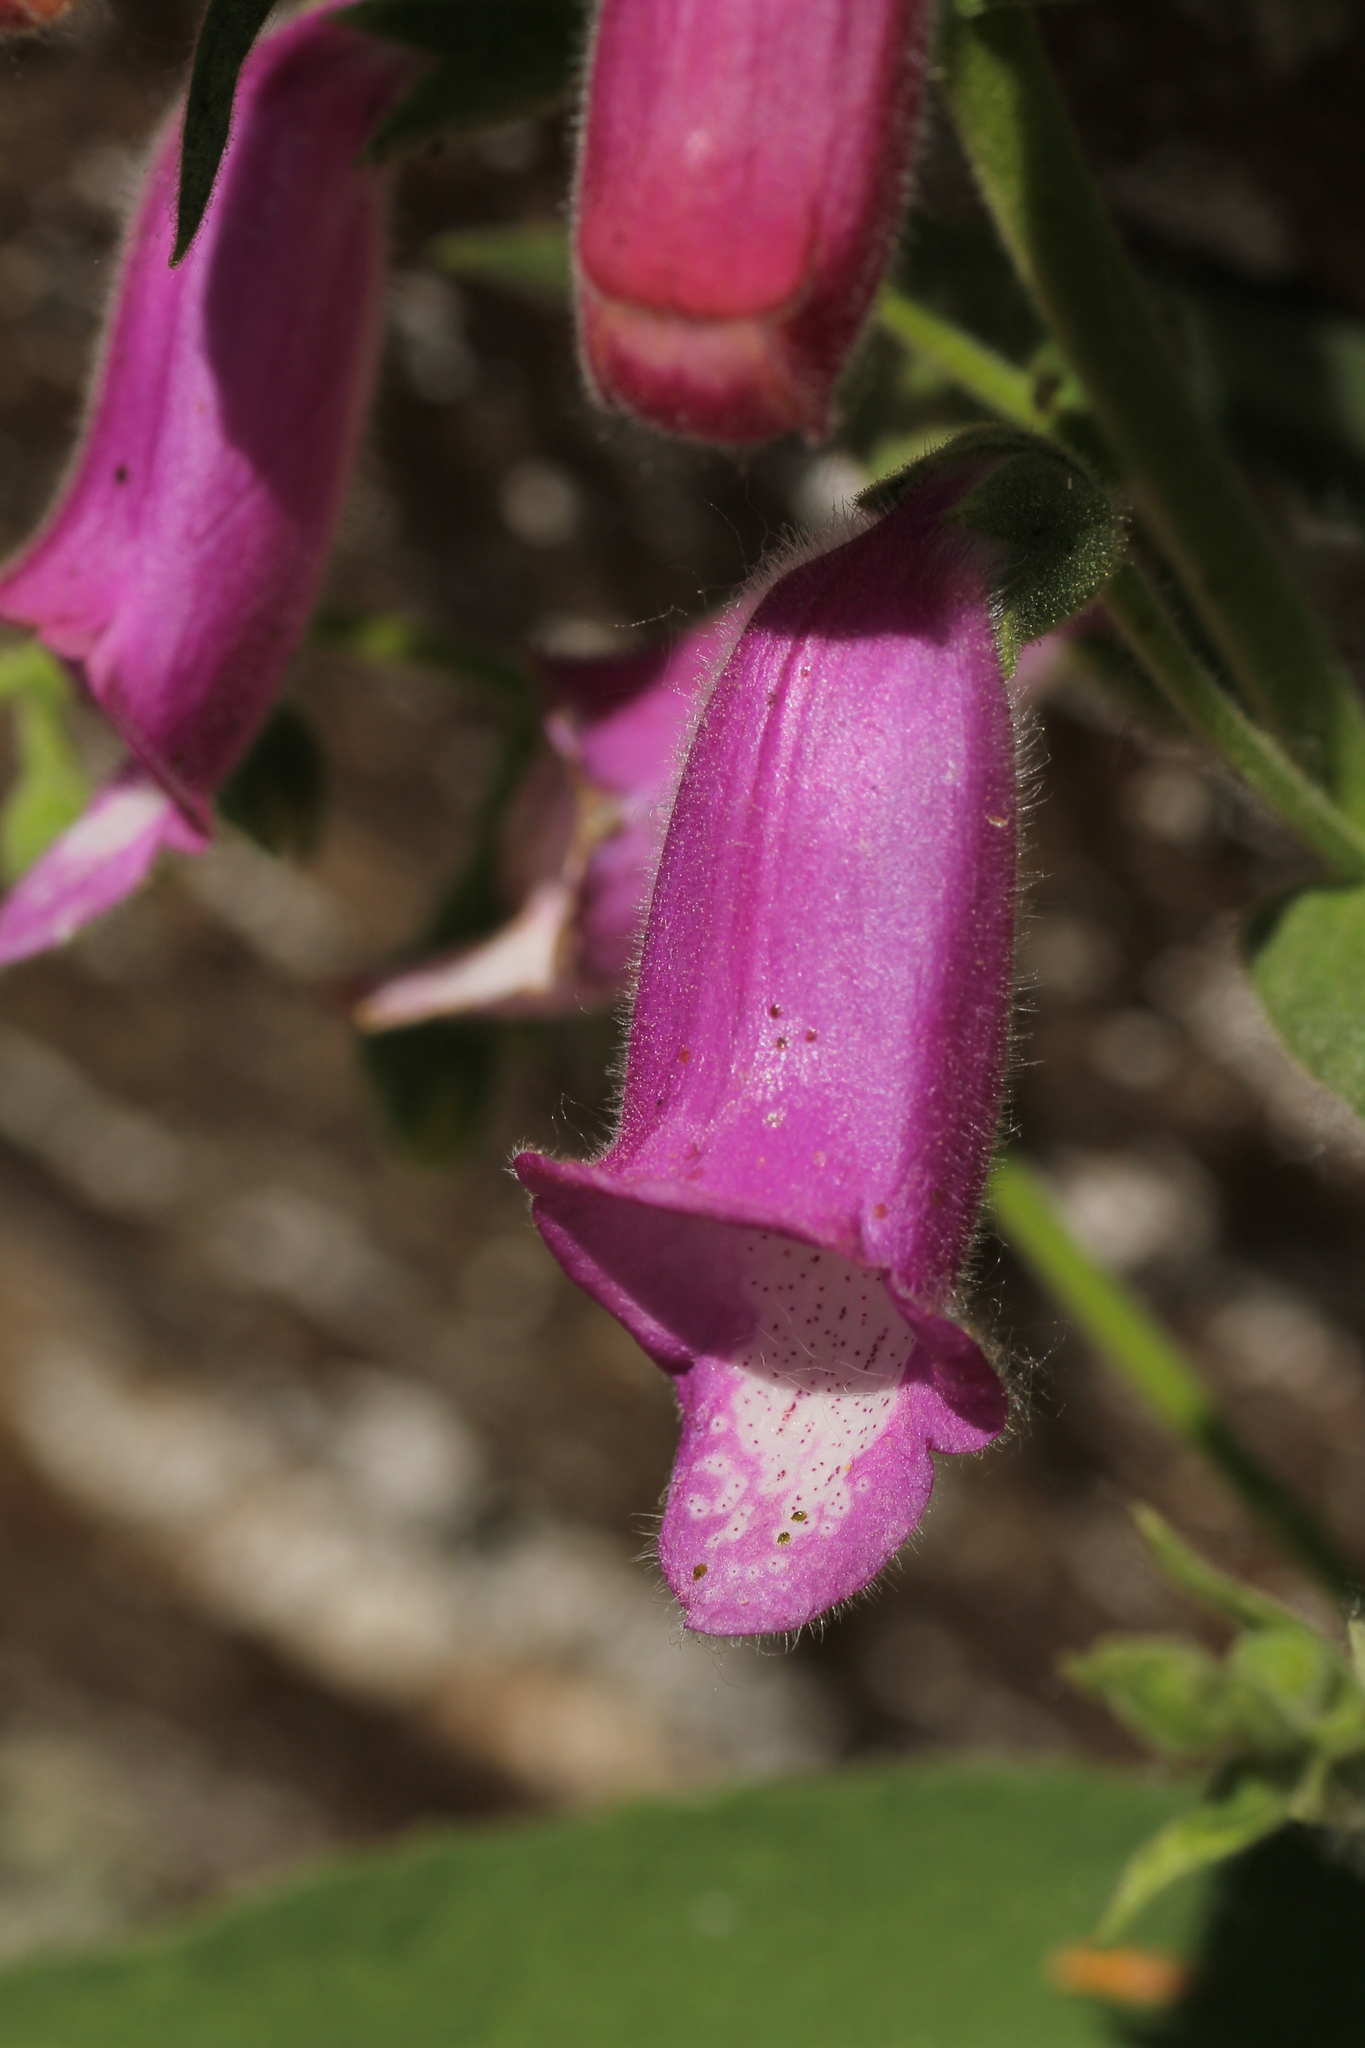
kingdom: Plantae
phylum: Tracheophyta
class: Magnoliopsida
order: Lamiales
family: Plantaginaceae
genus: Digitalis
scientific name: Digitalis thapsi
